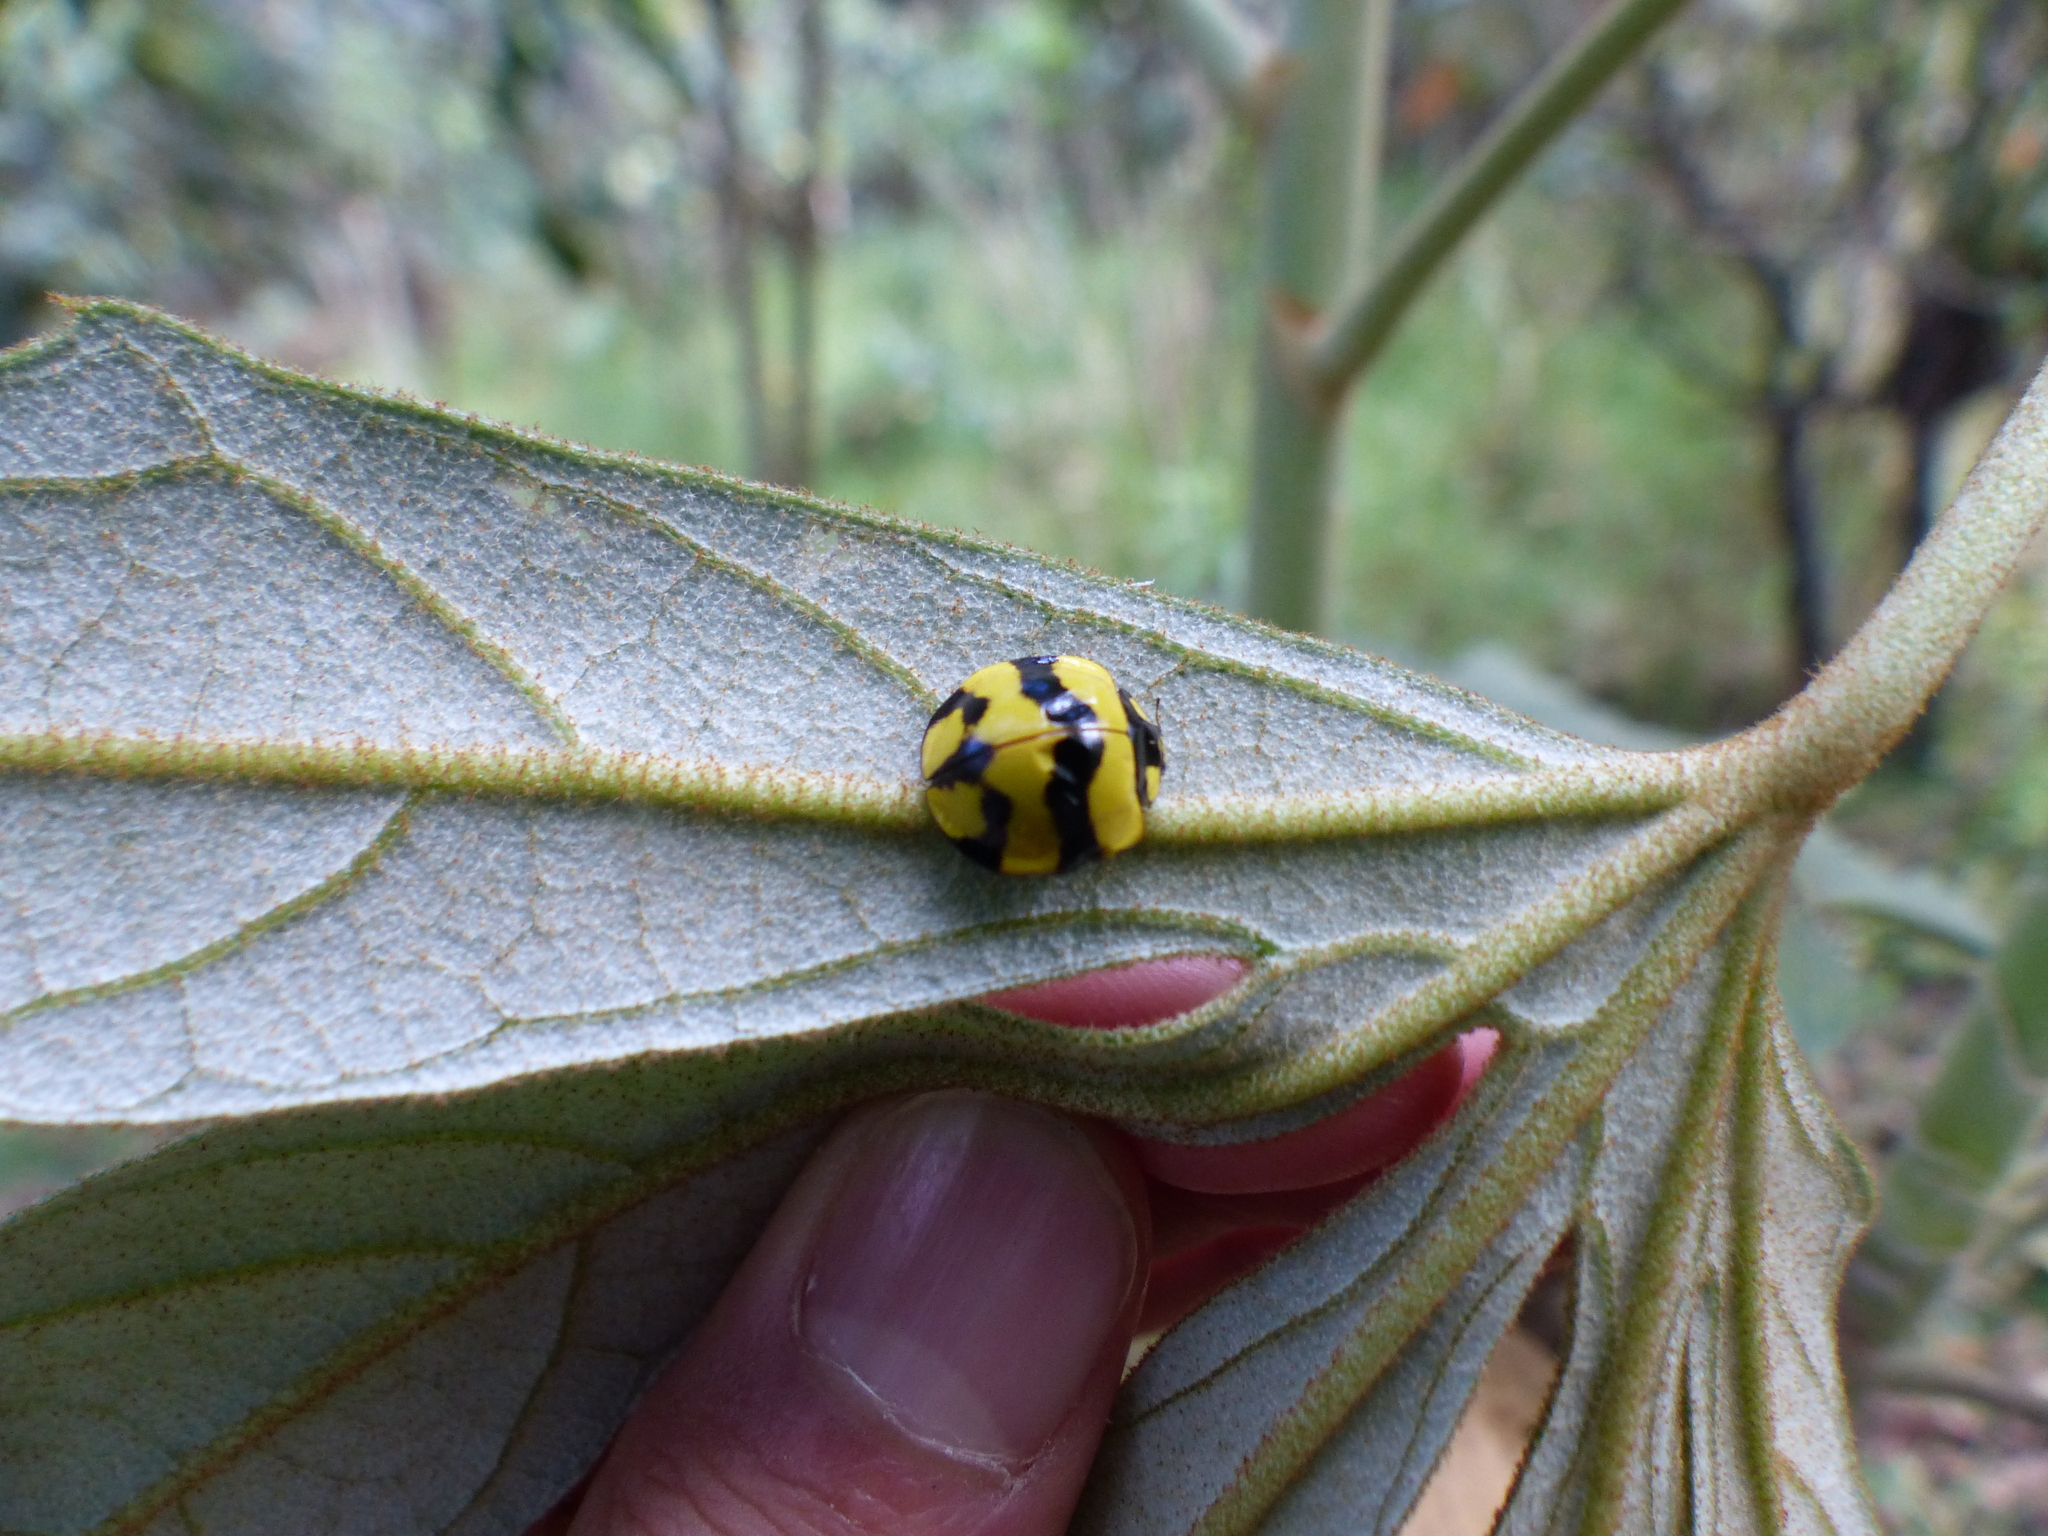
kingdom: Animalia
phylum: Arthropoda
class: Insecta
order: Coleoptera
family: Coccinellidae
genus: Neda
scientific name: Neda norrisi
